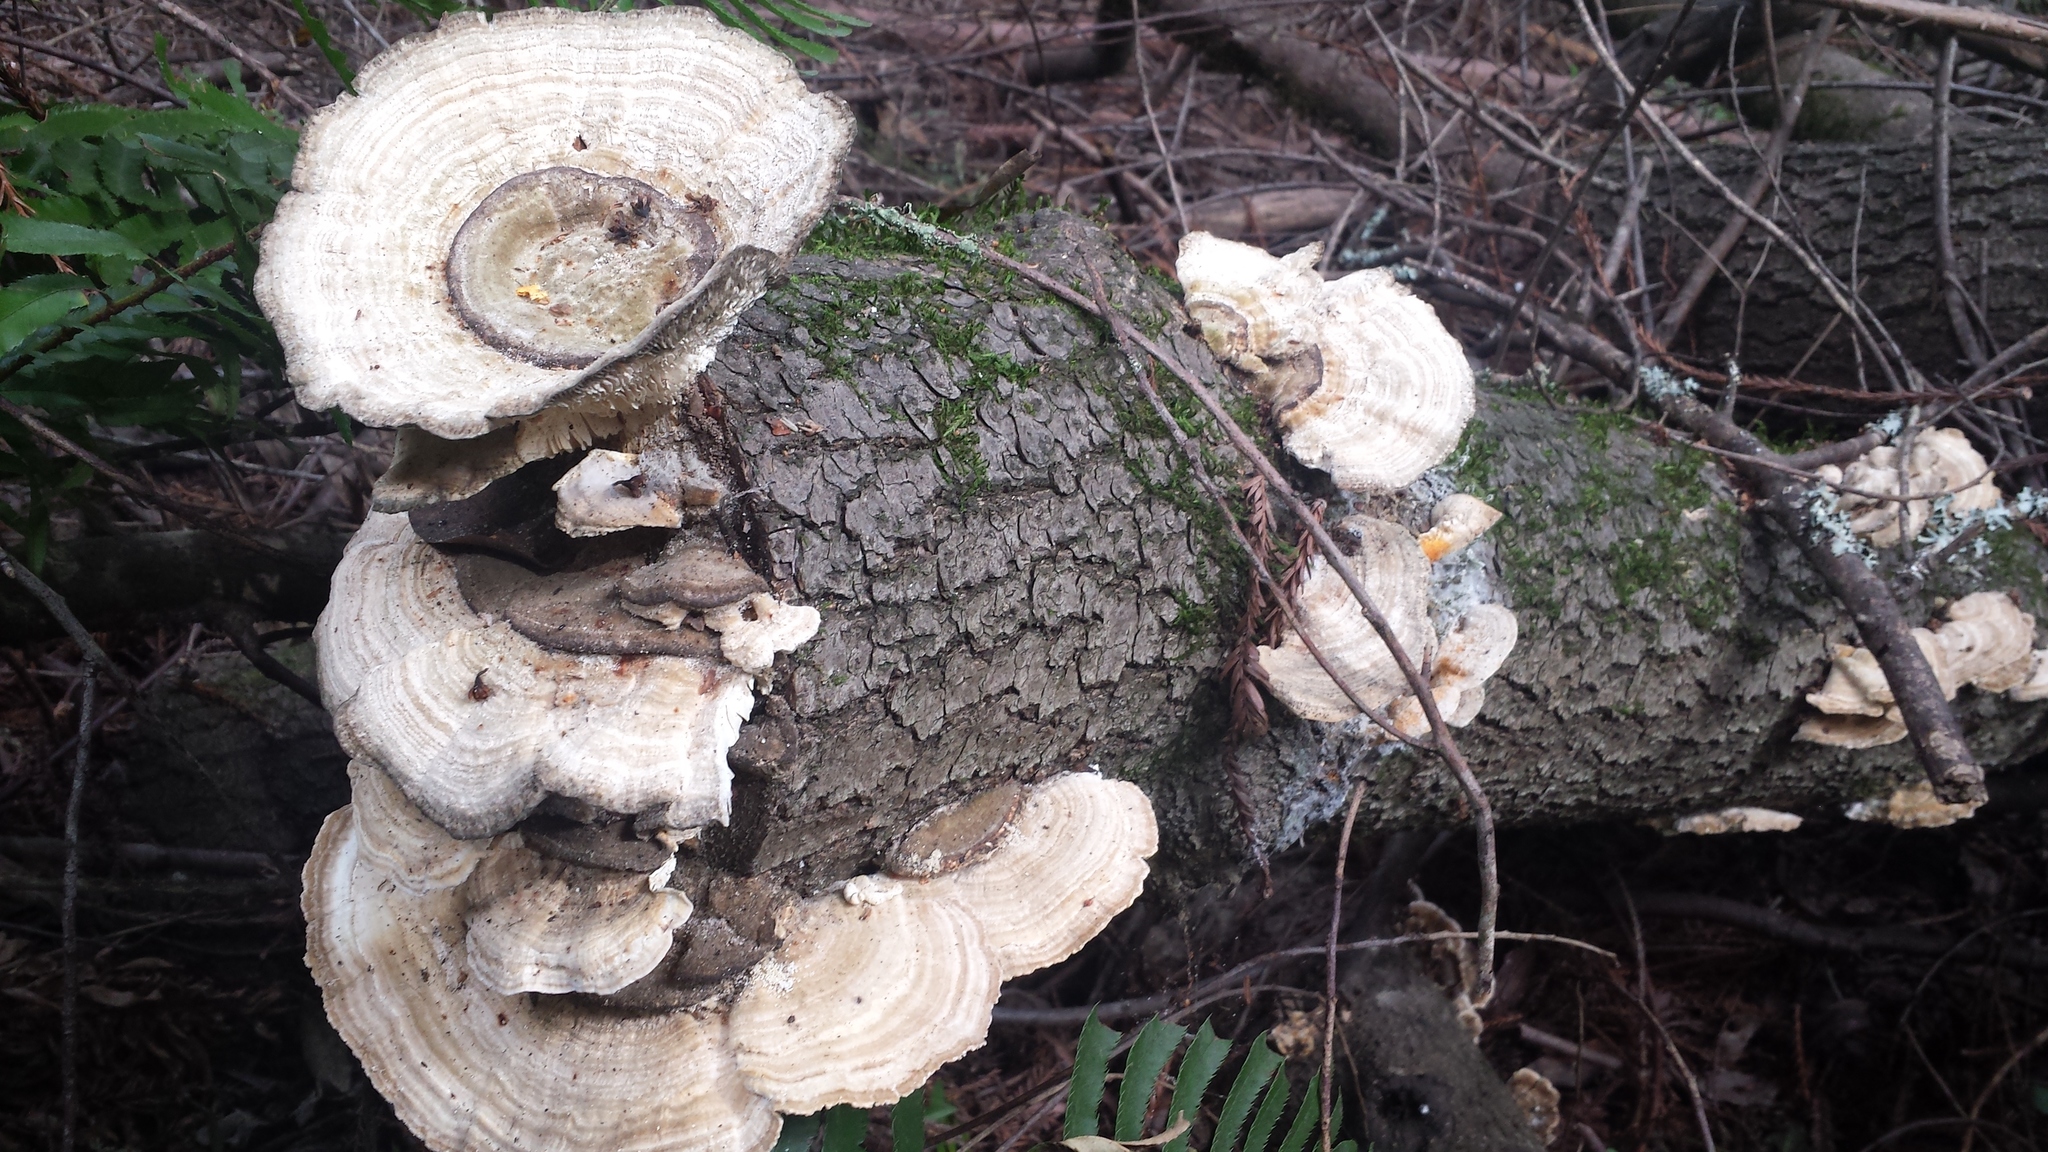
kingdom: Fungi
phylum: Basidiomycota
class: Agaricomycetes
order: Polyporales
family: Polyporaceae
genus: Lenzites
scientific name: Lenzites betulinus
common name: Birch mazegill
